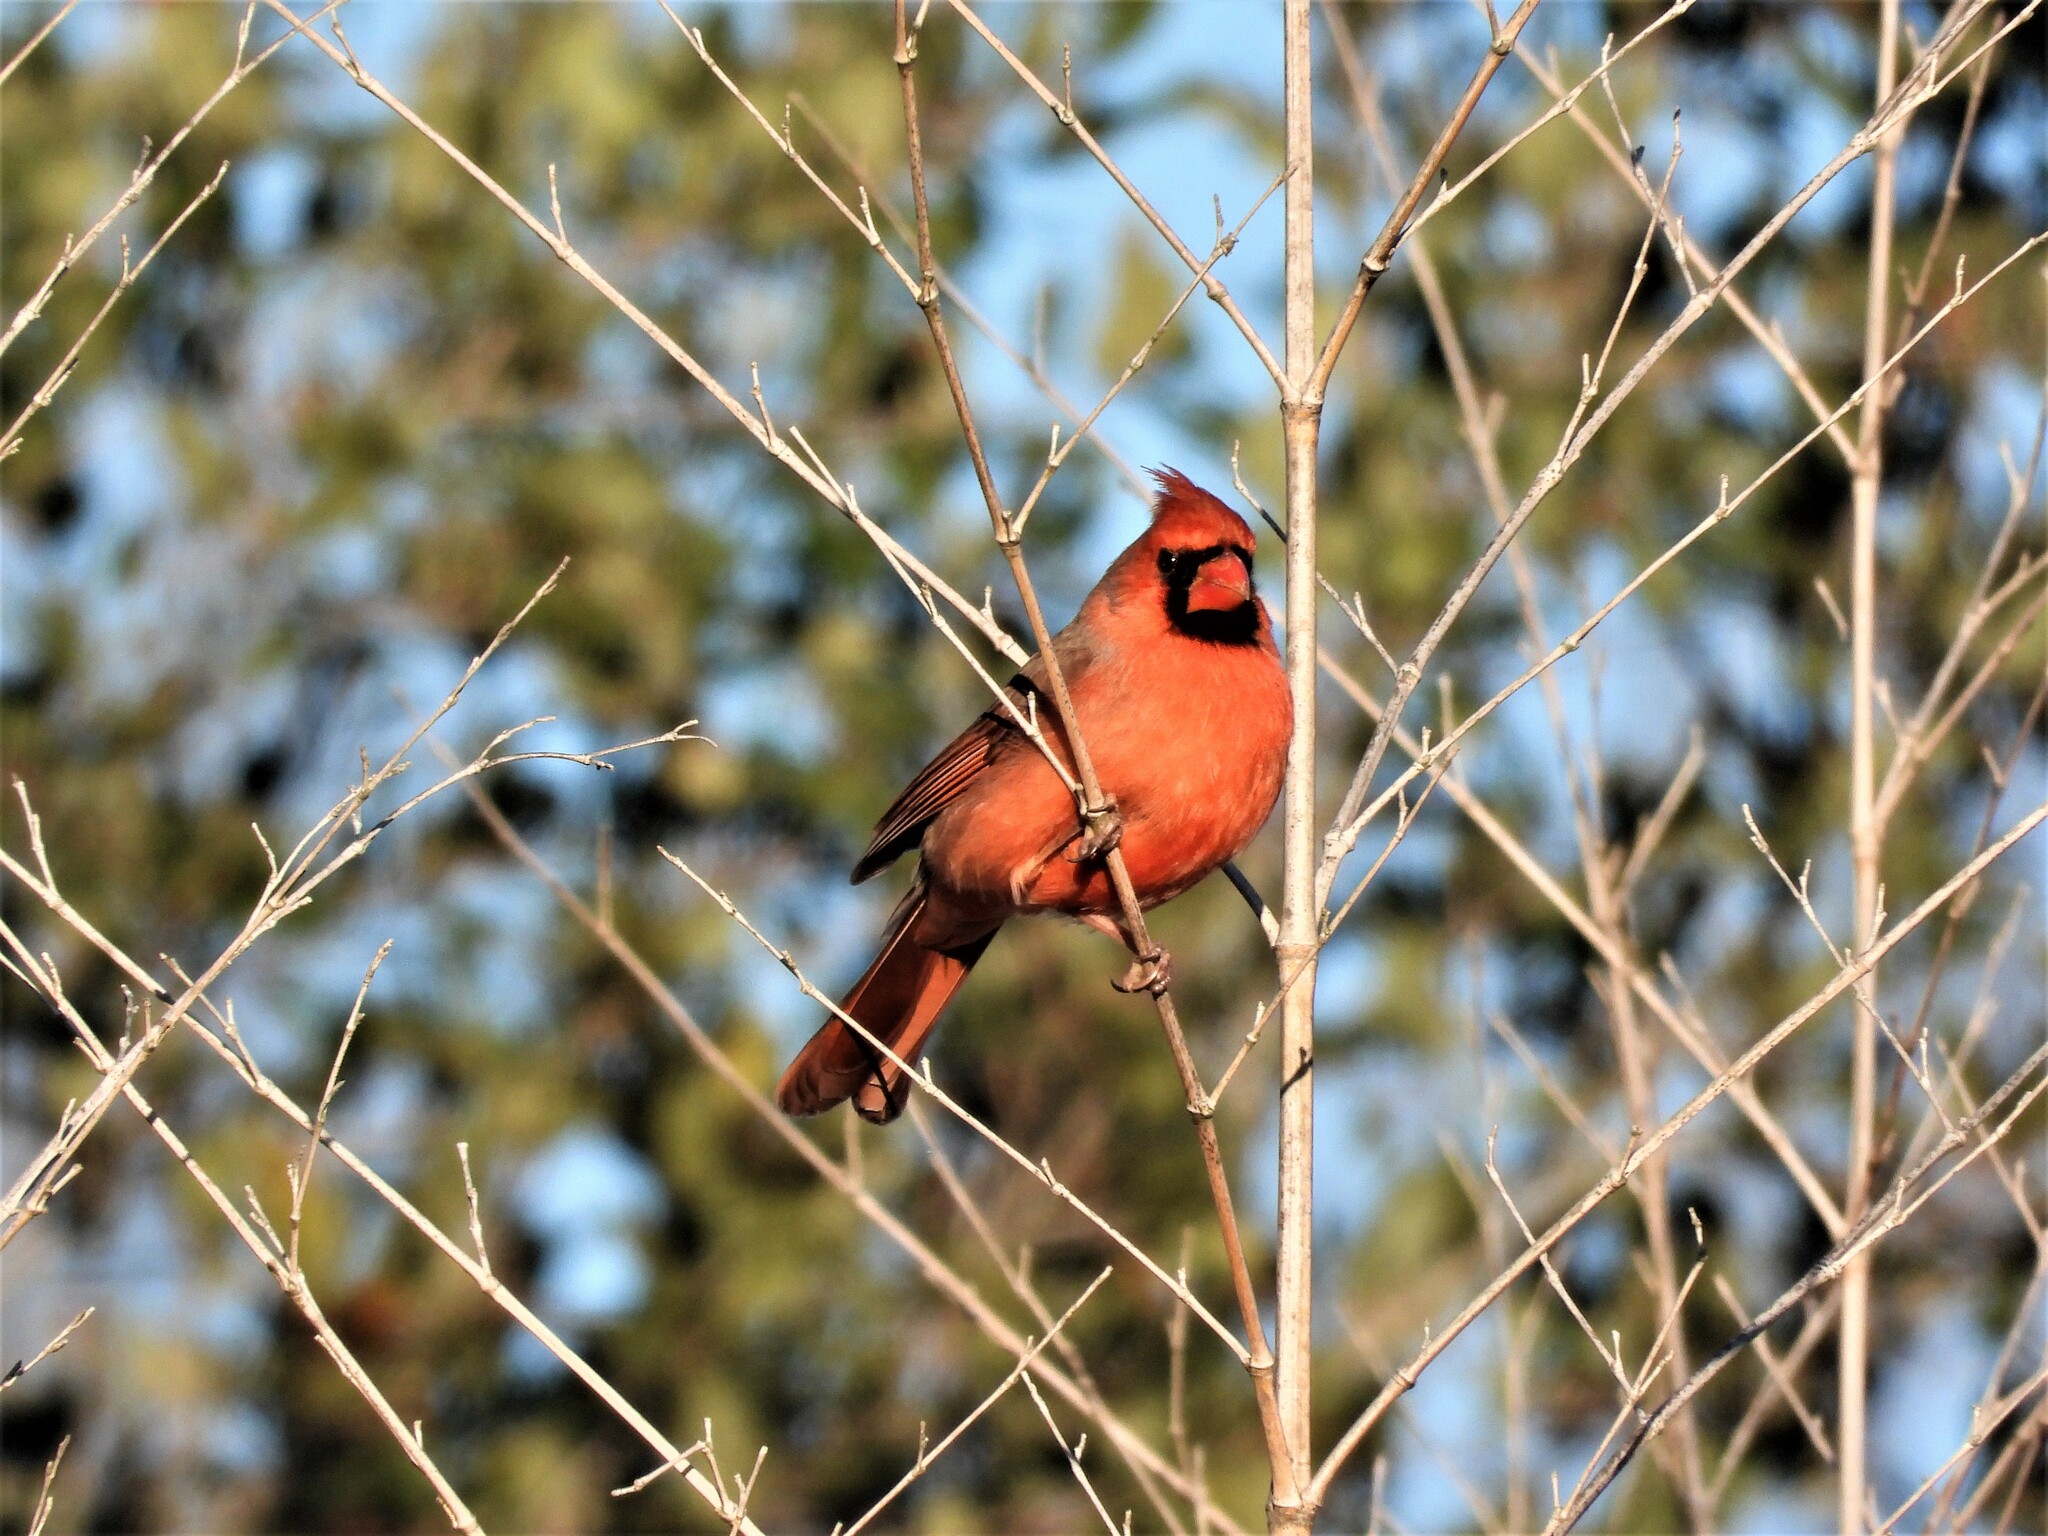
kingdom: Animalia
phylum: Chordata
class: Aves
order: Passeriformes
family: Cardinalidae
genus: Cardinalis
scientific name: Cardinalis cardinalis
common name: Northern cardinal
